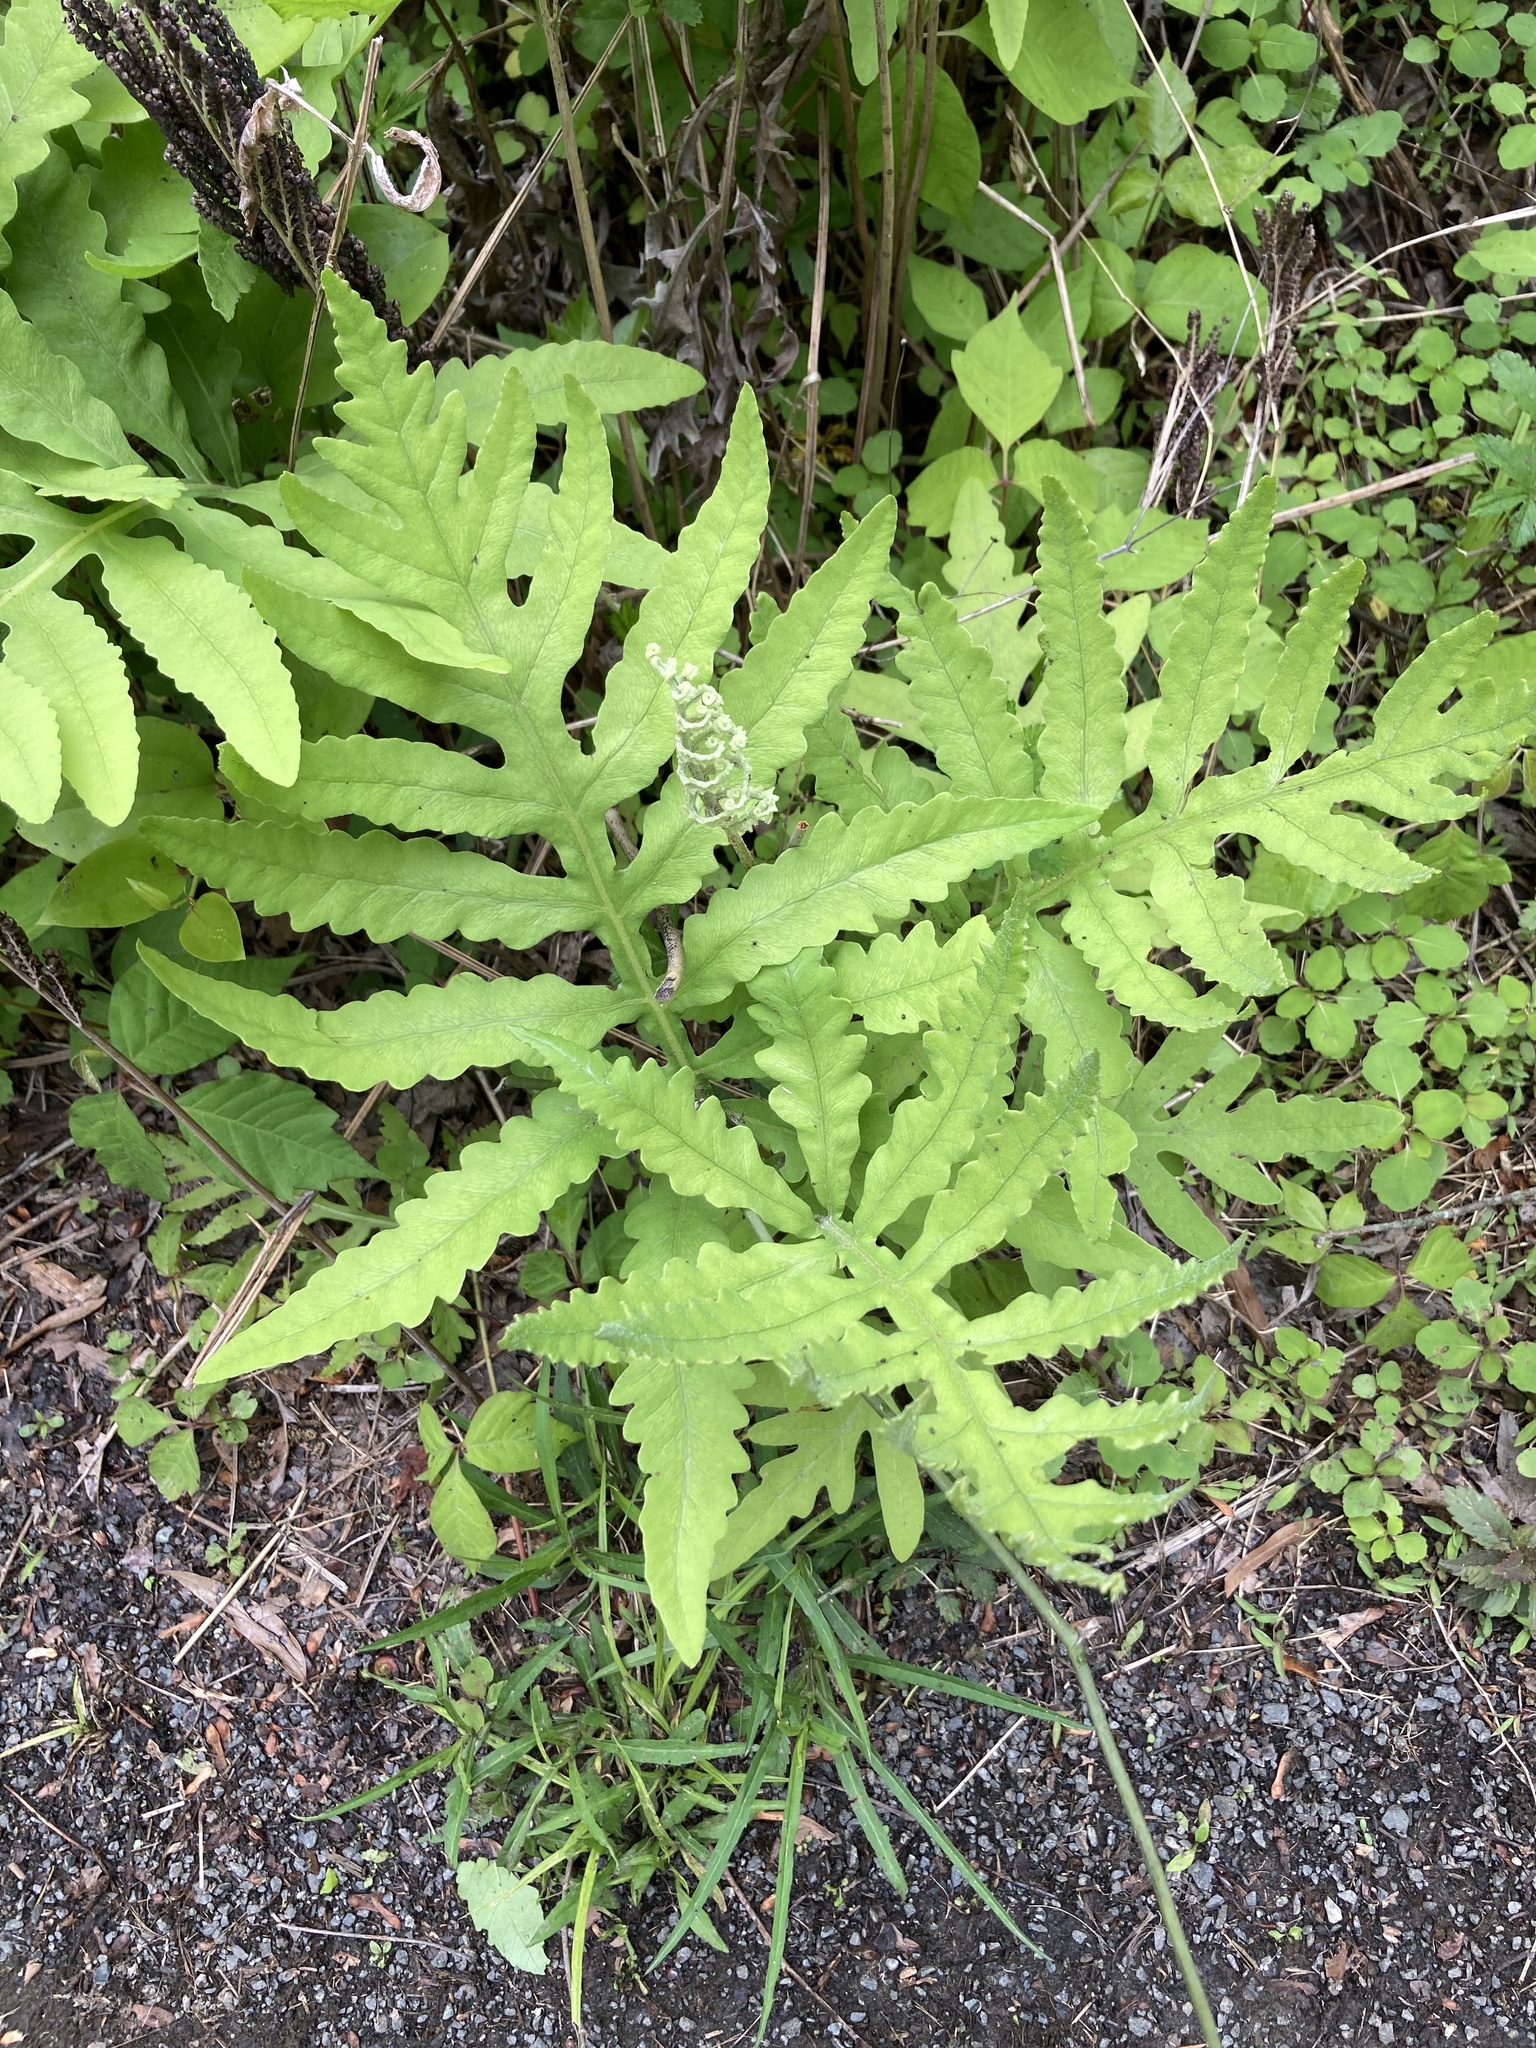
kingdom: Plantae
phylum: Tracheophyta
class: Polypodiopsida
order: Polypodiales
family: Onocleaceae
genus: Onoclea
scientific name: Onoclea sensibilis
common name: Sensitive fern
